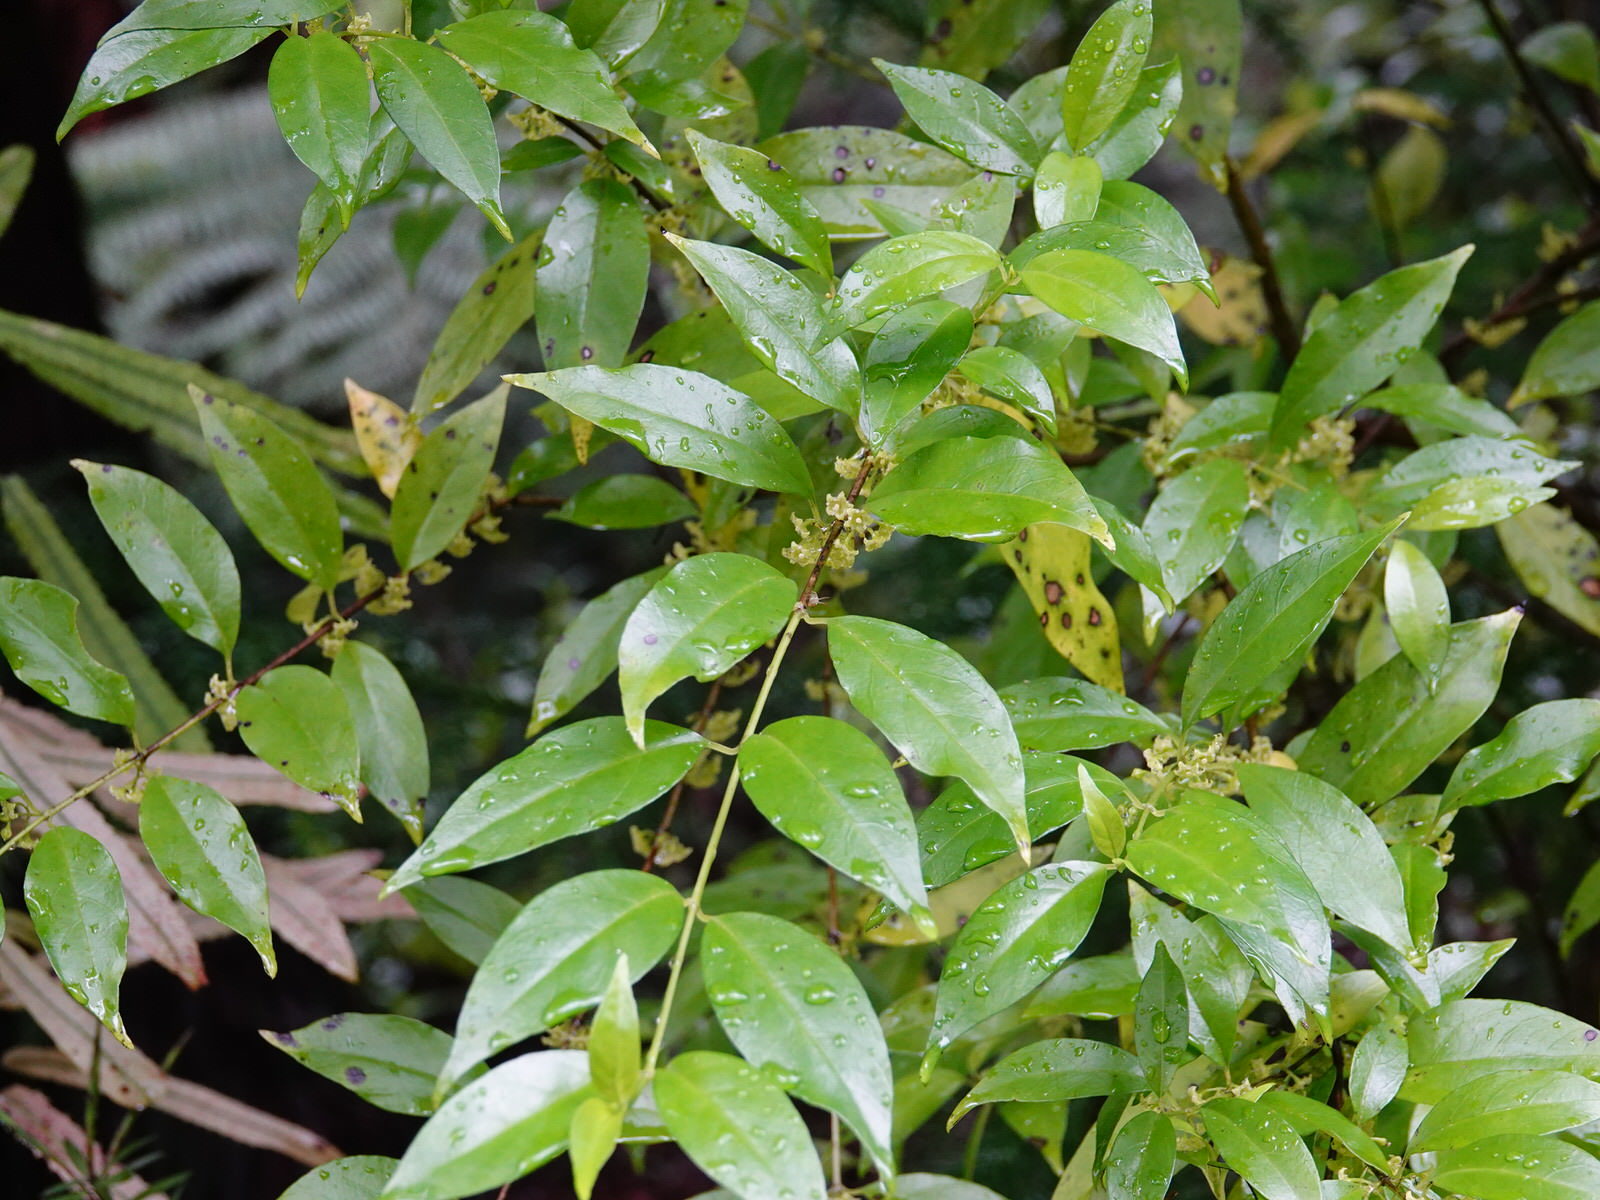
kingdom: Plantae
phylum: Tracheophyta
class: Magnoliopsida
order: Gentianales
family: Loganiaceae
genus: Geniostoma
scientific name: Geniostoma ligustrifolium
